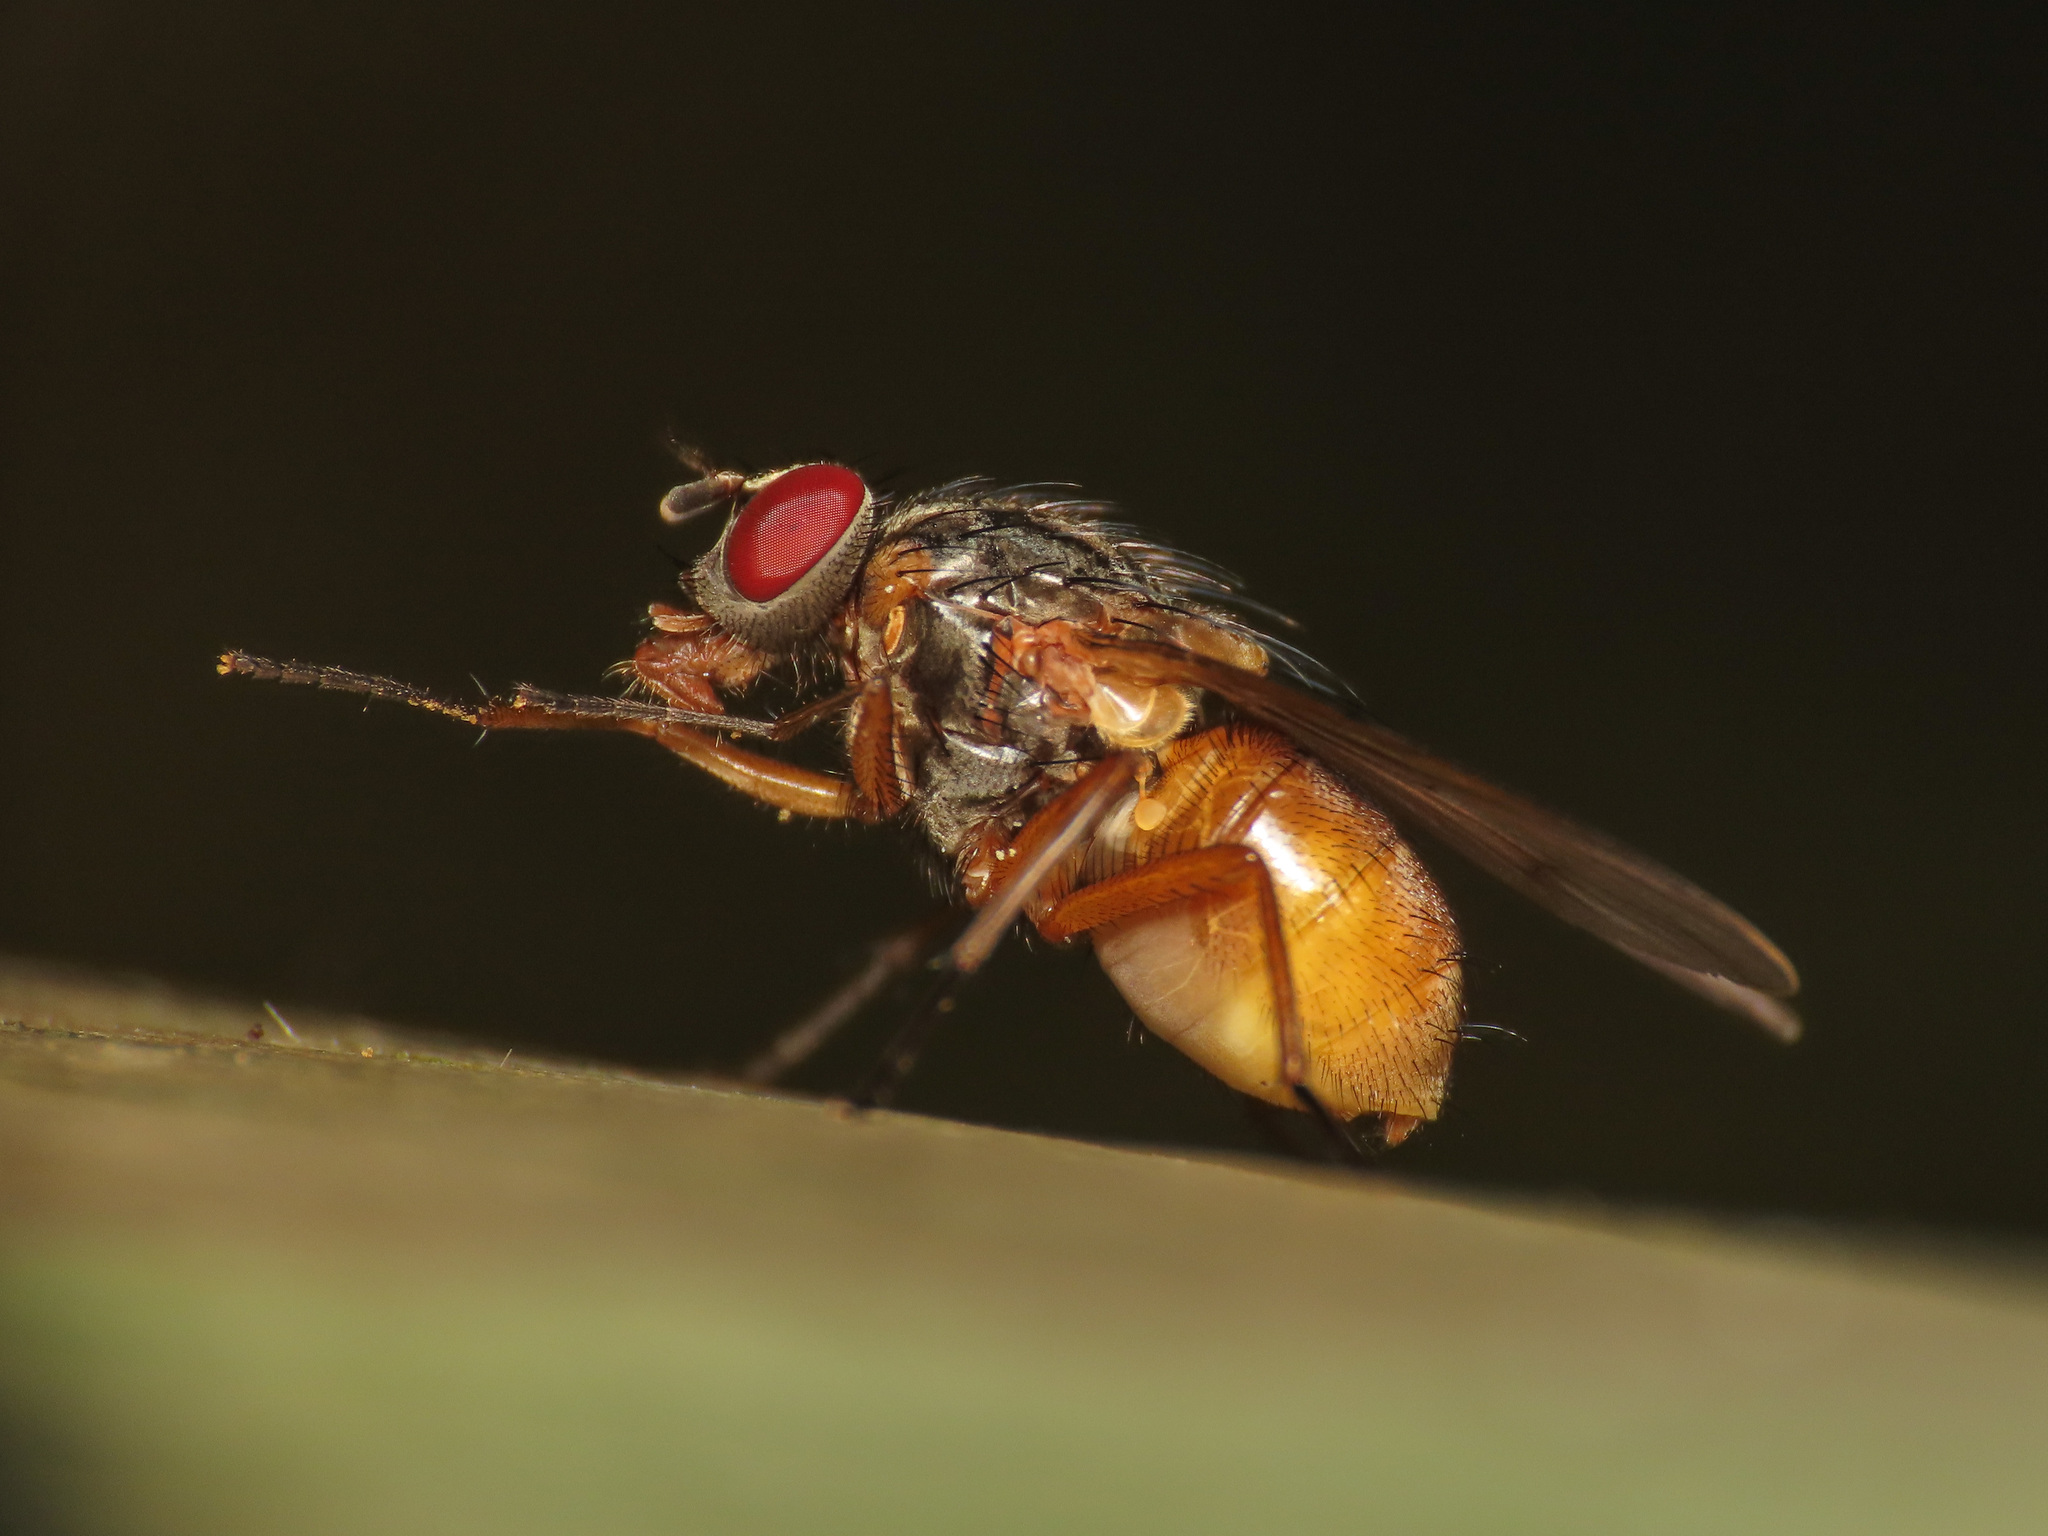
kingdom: Animalia
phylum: Arthropoda
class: Insecta
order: Diptera
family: Muscidae
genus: Phaonia
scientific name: Phaonia subventa
